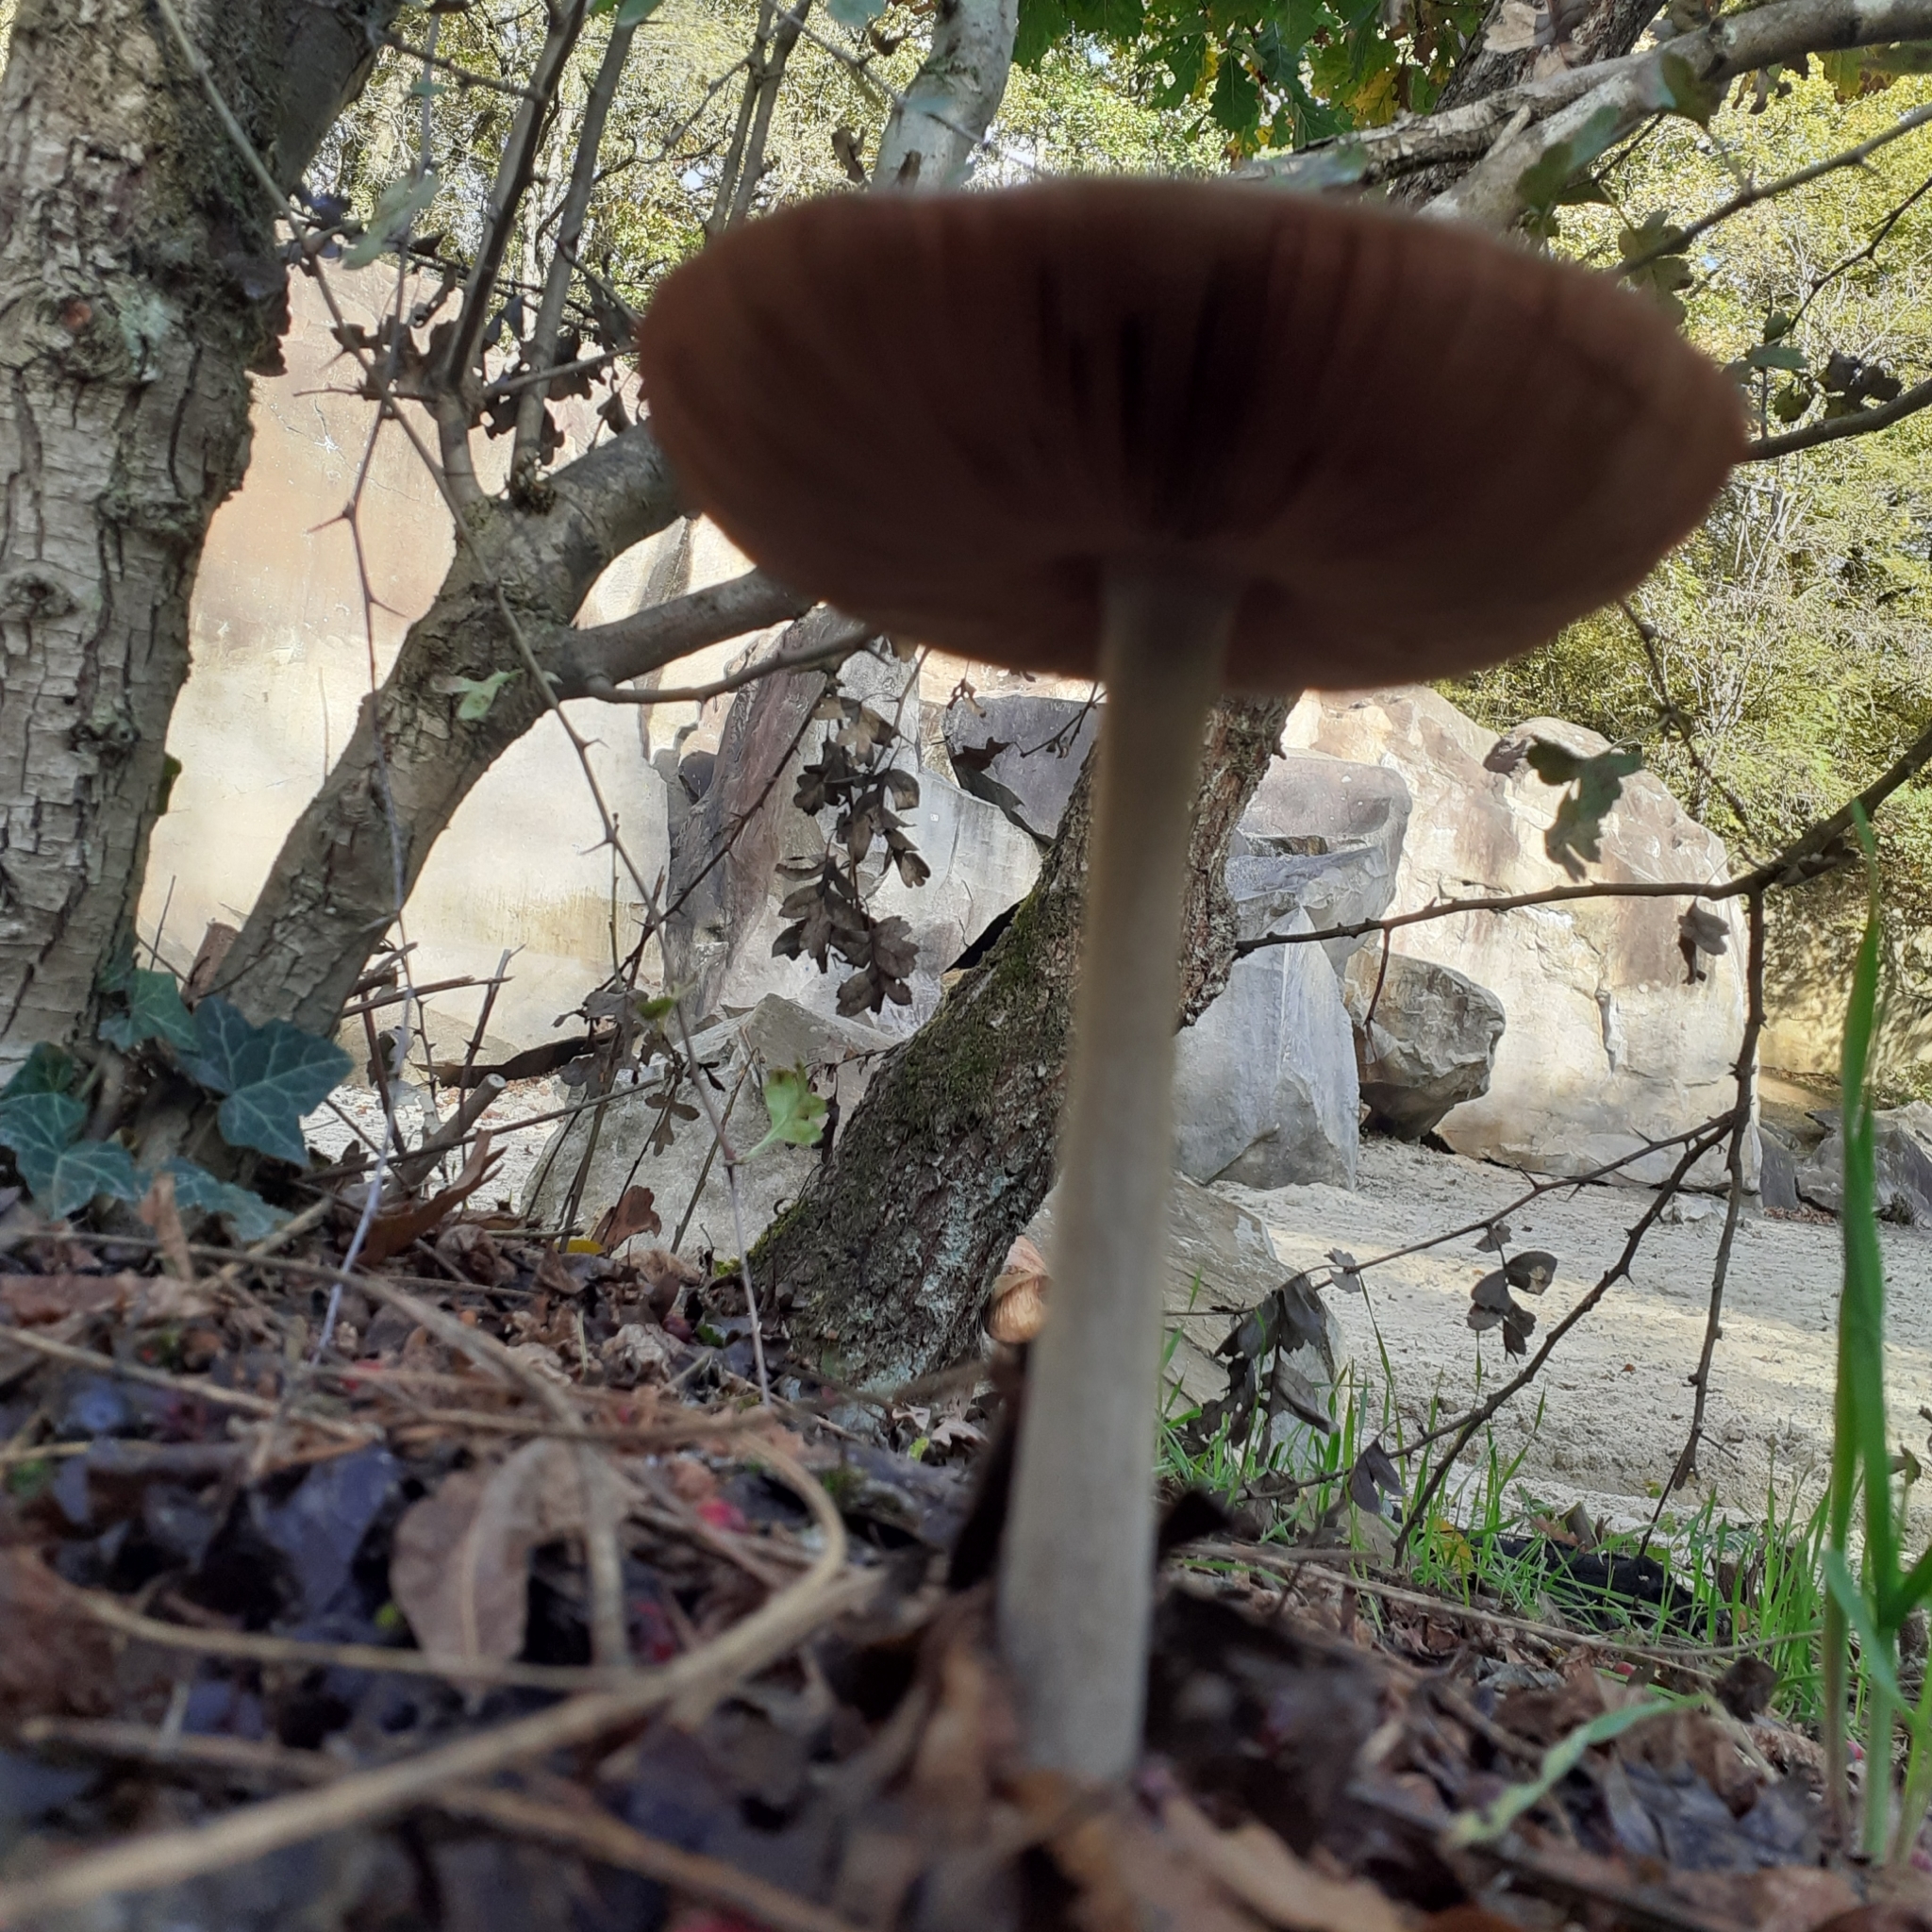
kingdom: Fungi
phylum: Basidiomycota
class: Agaricomycetes
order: Agaricales
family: Pluteaceae
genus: Volvopluteus
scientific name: Volvopluteus gloiocephalus
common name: Stubble rosegill
